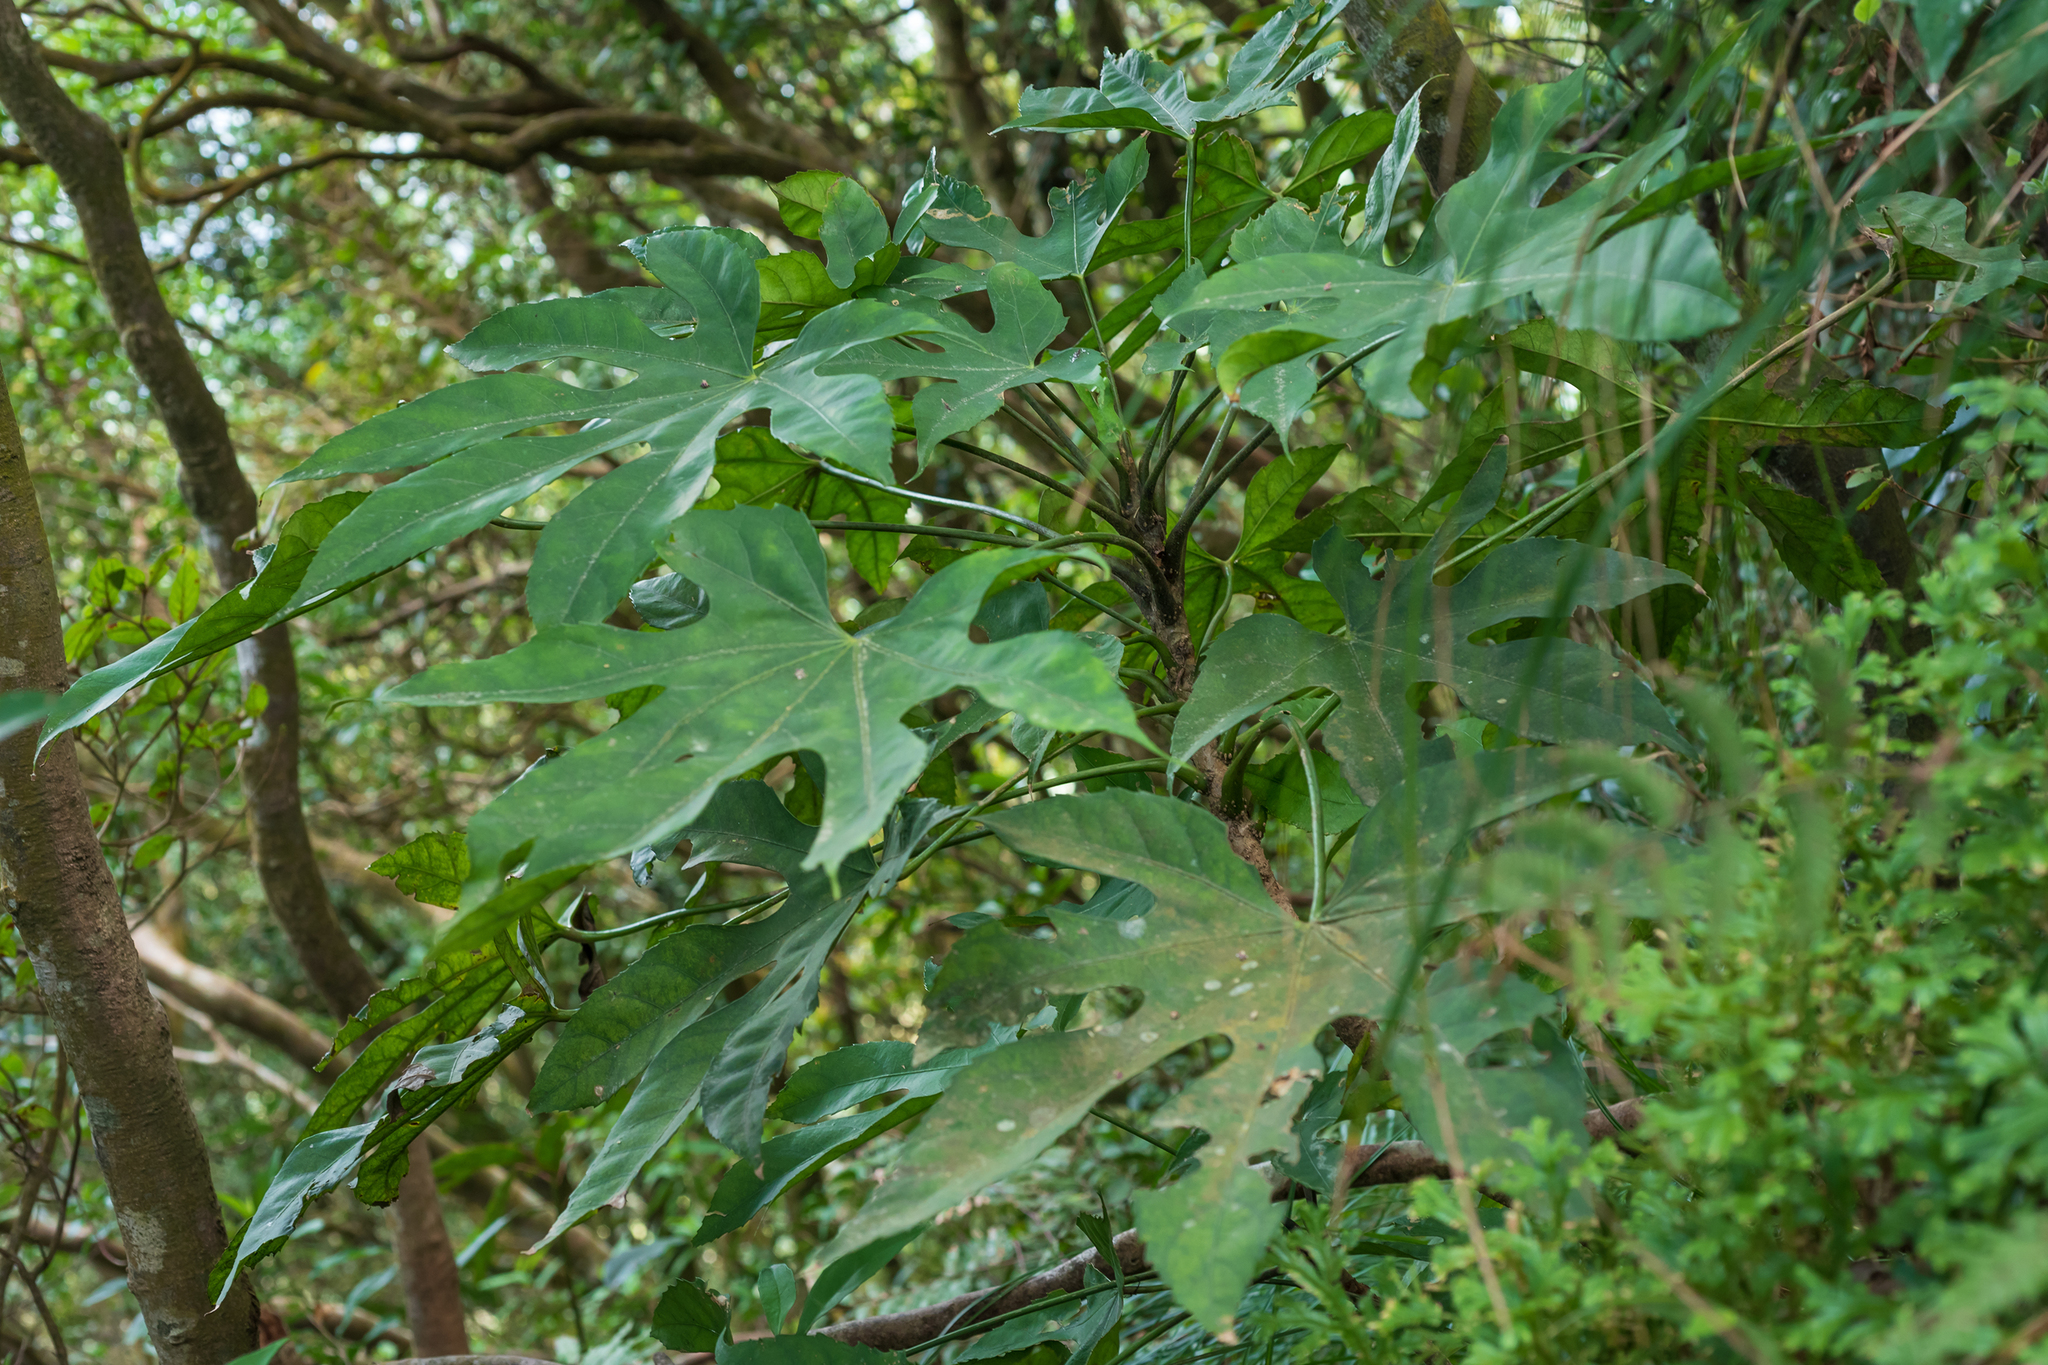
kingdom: Plantae
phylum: Tracheophyta
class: Magnoliopsida
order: Apiales
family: Araliaceae
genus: Fatsia
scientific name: Fatsia polycarpa
